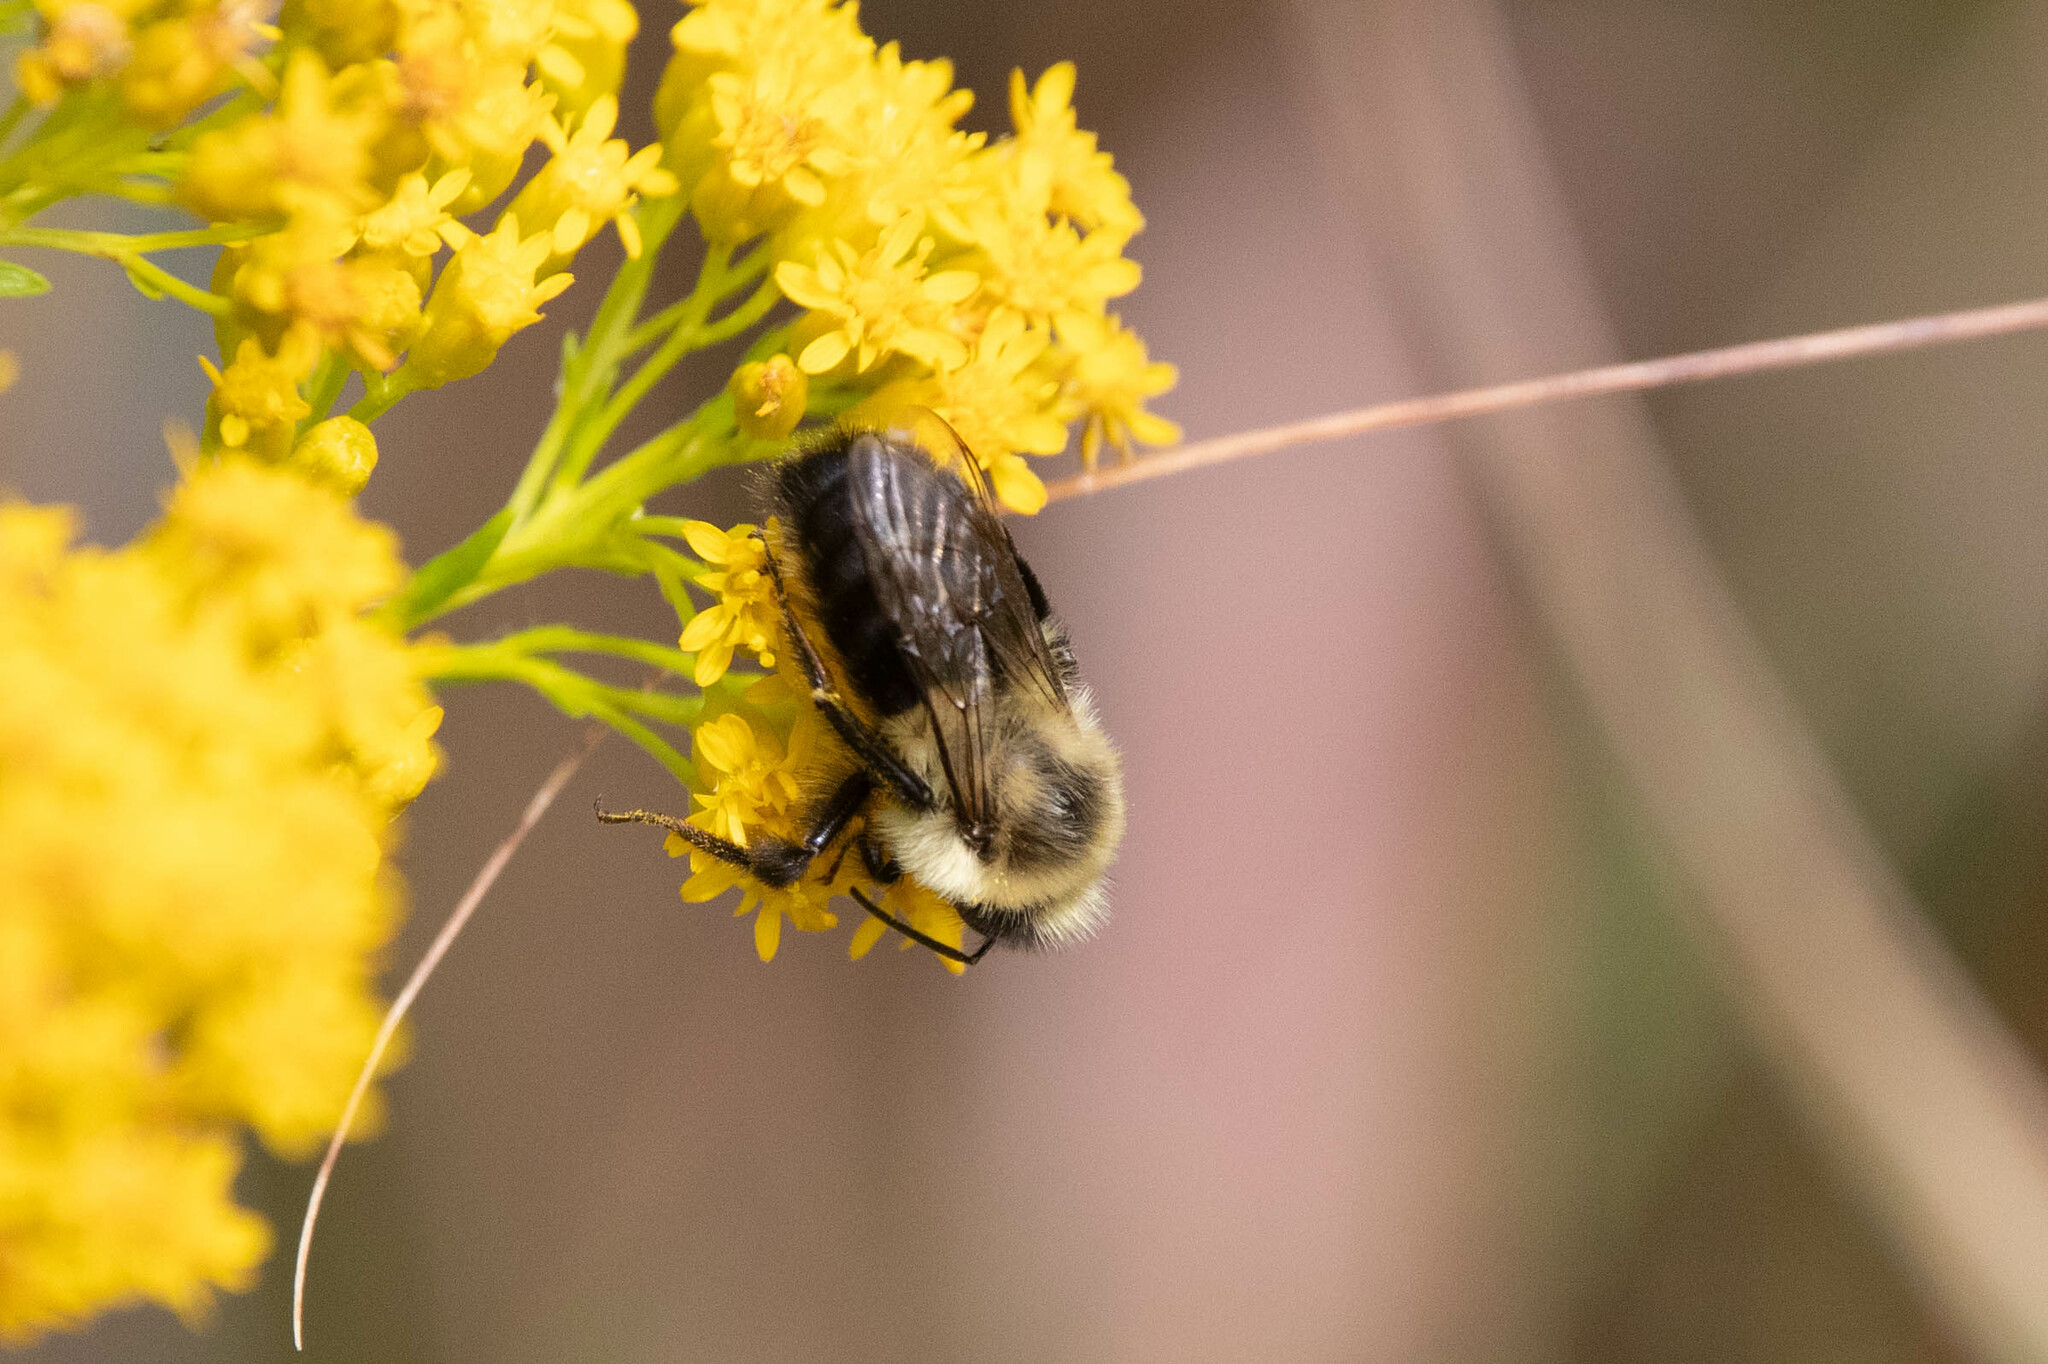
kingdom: Animalia
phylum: Arthropoda
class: Insecta
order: Hymenoptera
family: Apidae
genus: Bombus
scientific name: Bombus impatiens
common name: Common eastern bumble bee
